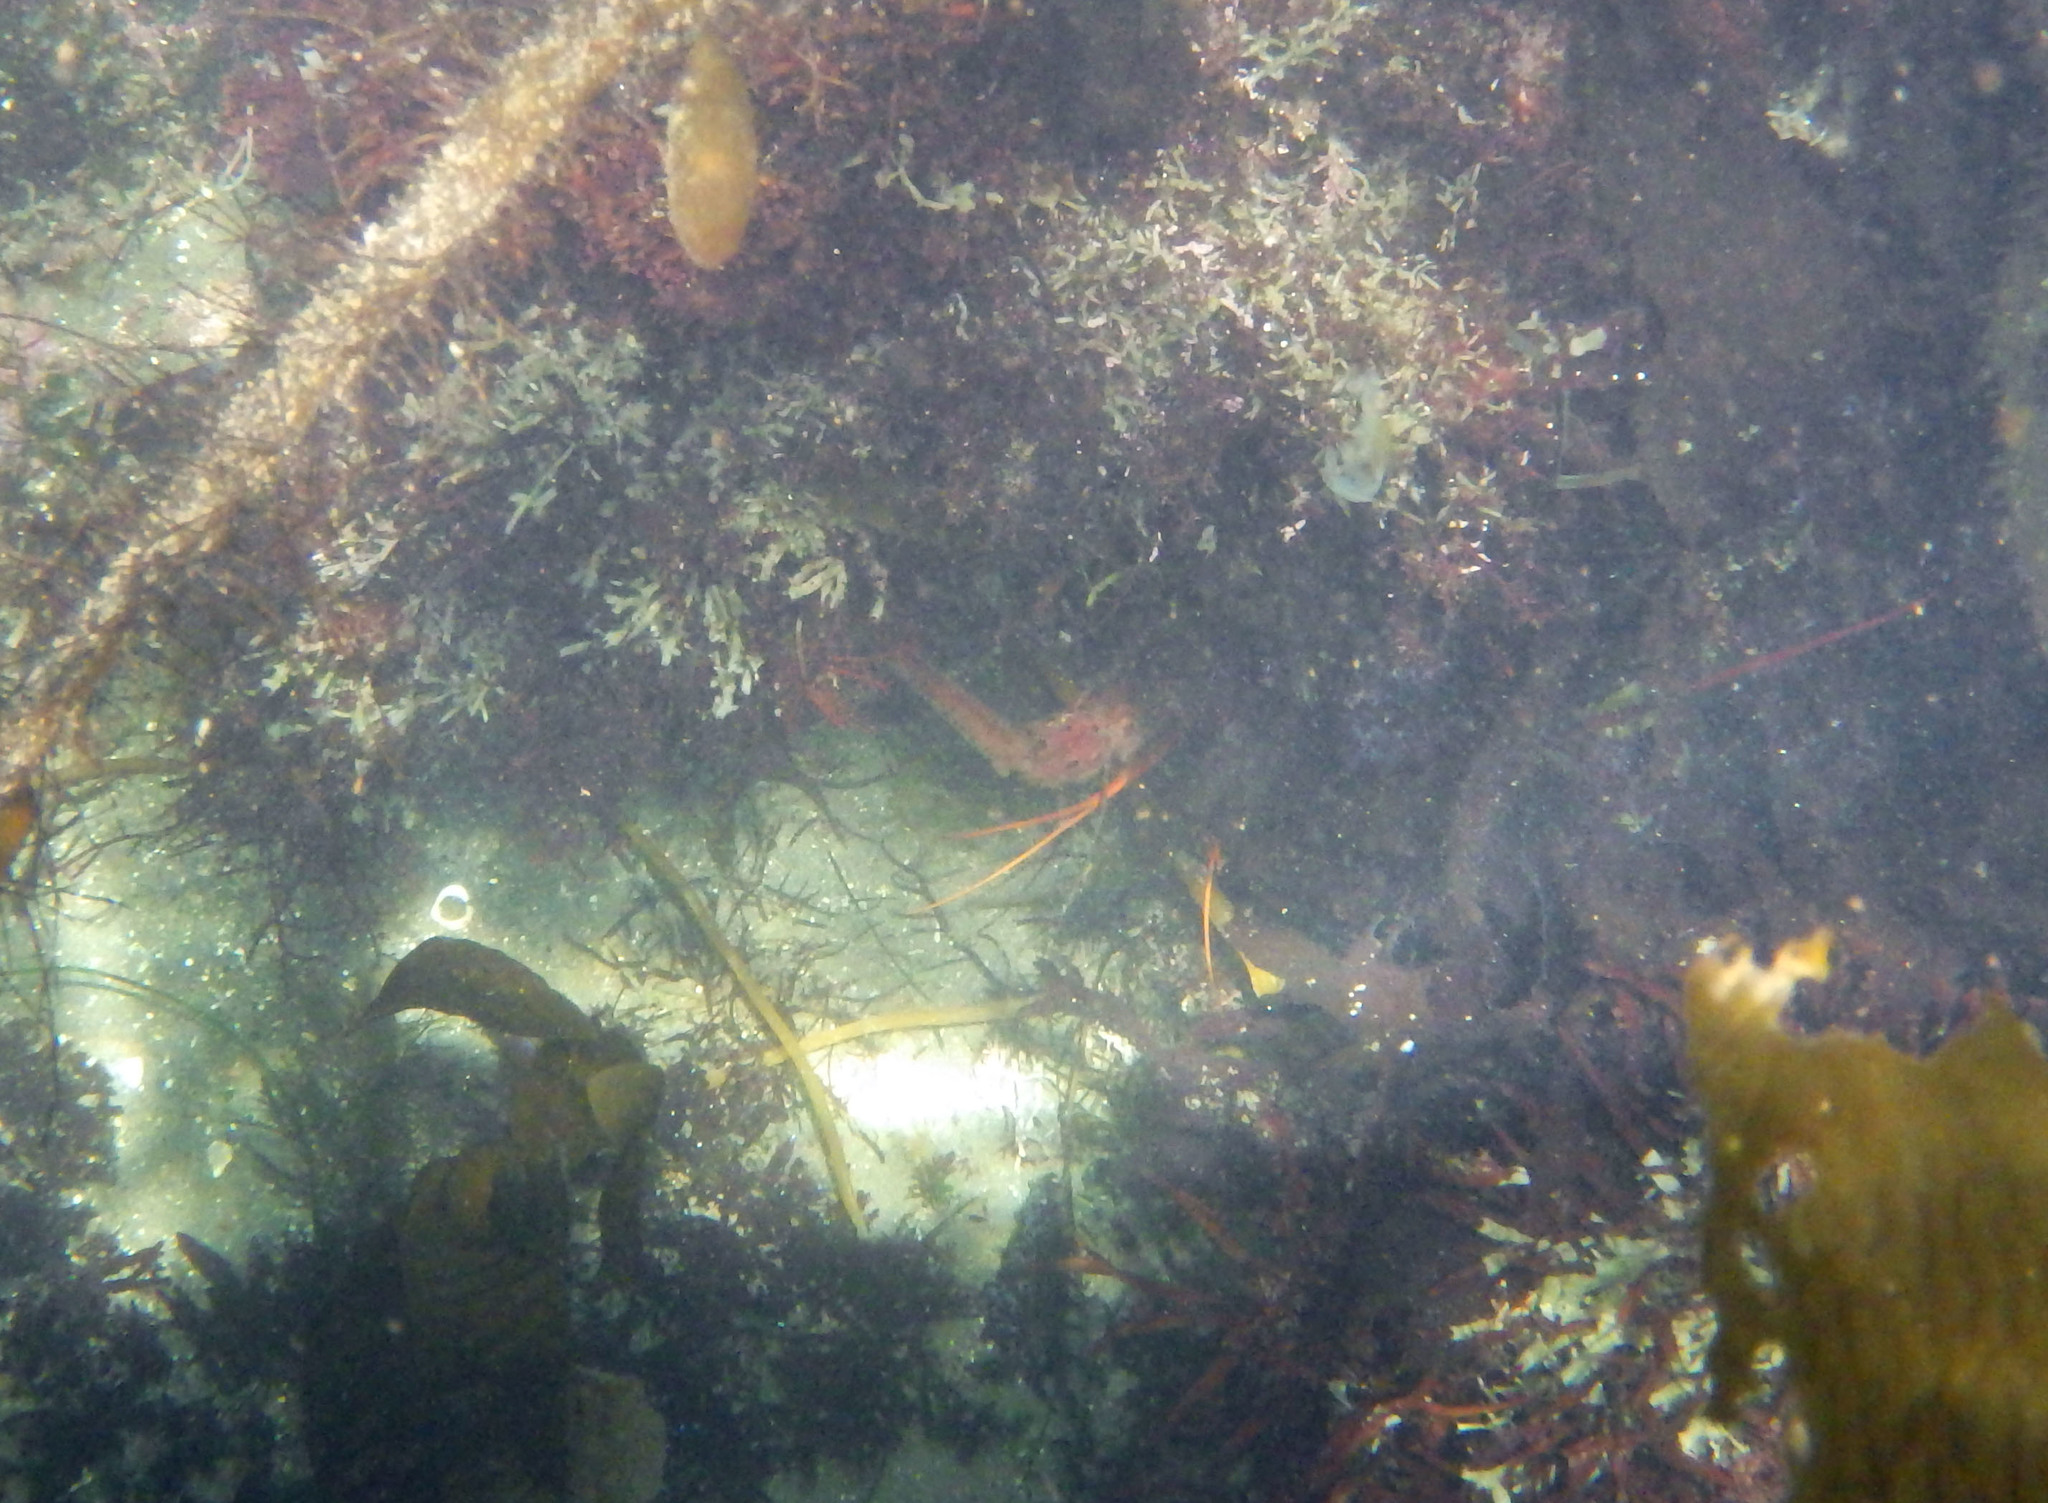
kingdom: Animalia
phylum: Arthropoda
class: Malacostraca
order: Decapoda
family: Palinuridae
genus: Panulirus
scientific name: Panulirus interruptus
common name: California spiny lobster
